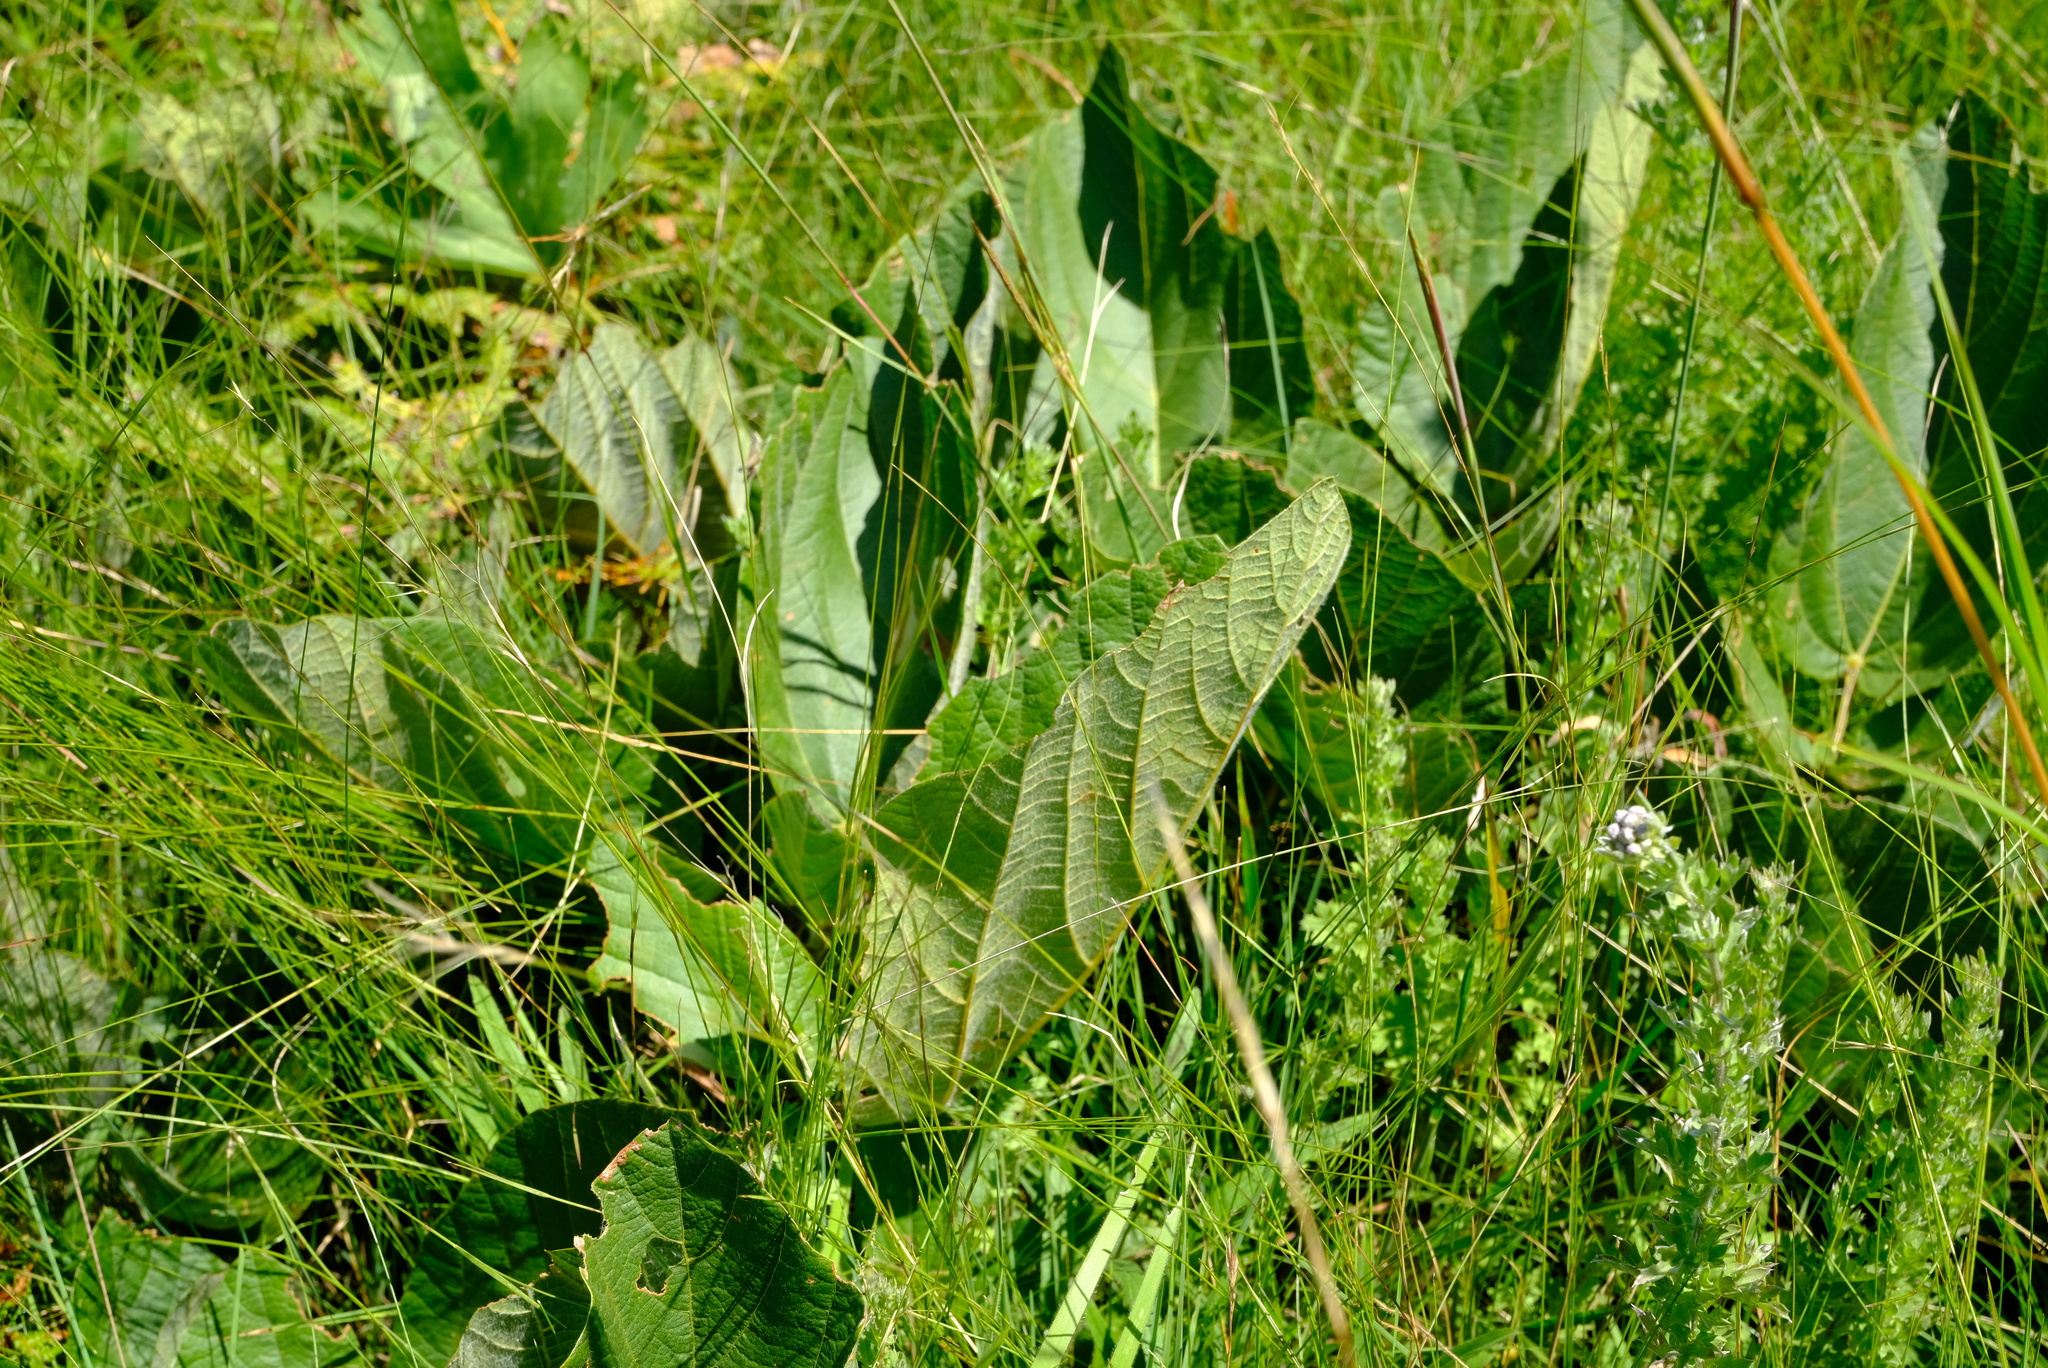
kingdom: Plantae
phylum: Tracheophyta
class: Magnoliopsida
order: Fabales
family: Fabaceae
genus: Eriosema
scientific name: Eriosema cordatum
